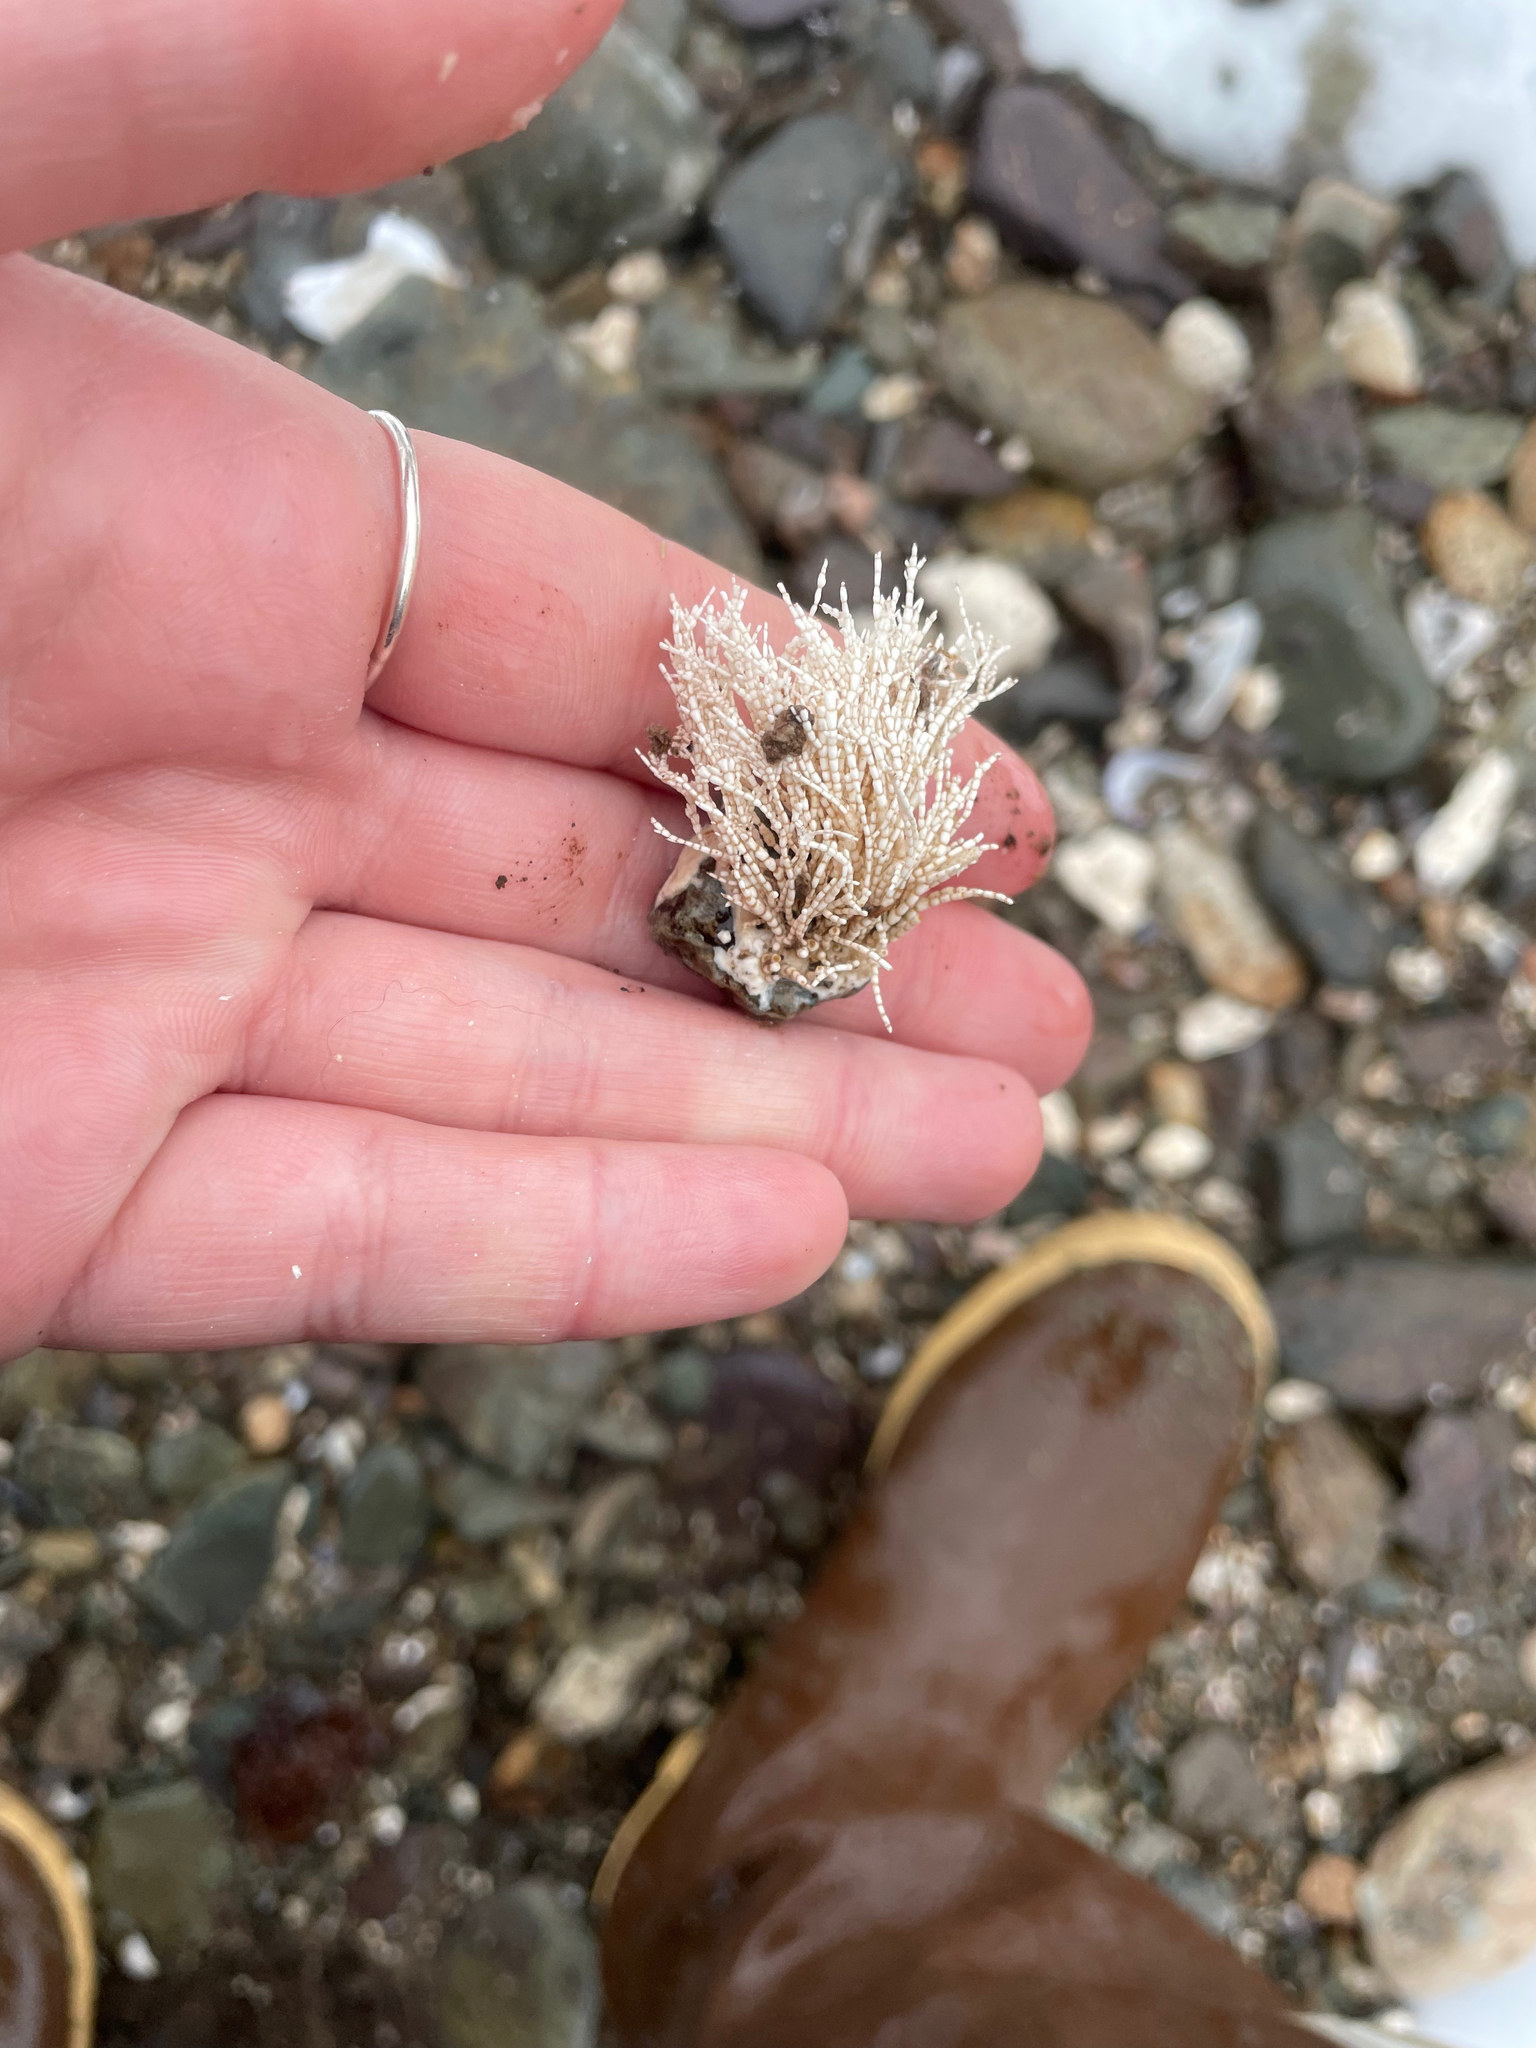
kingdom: Plantae
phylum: Rhodophyta
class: Florideophyceae
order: Corallinales
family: Corallinaceae
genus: Corallina
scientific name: Corallina officinalis
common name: Coral weed
